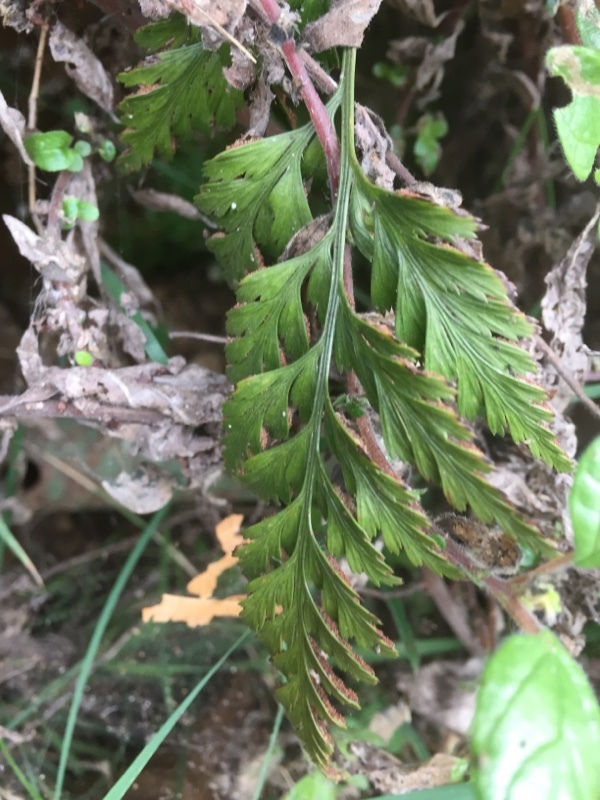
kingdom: Plantae
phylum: Tracheophyta
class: Polypodiopsida
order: Polypodiales
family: Davalliaceae
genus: Davallia
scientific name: Davallia canariensis
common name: Hare's-foot fern
